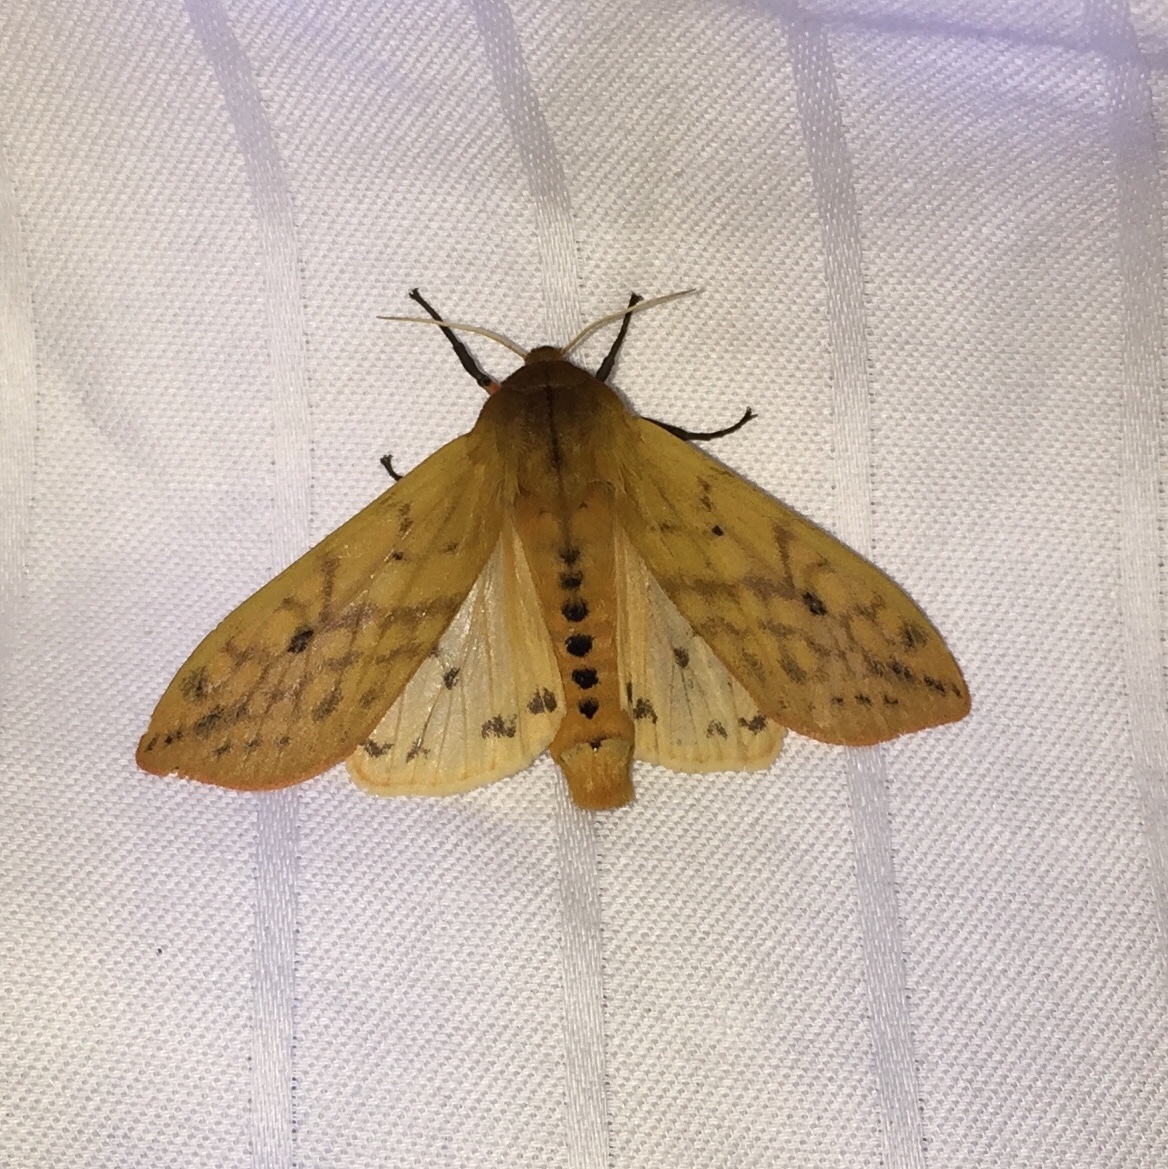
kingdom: Animalia
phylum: Arthropoda
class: Insecta
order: Lepidoptera
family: Erebidae
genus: Pyrrharctia
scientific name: Pyrrharctia isabella
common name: Isabella tiger moth
